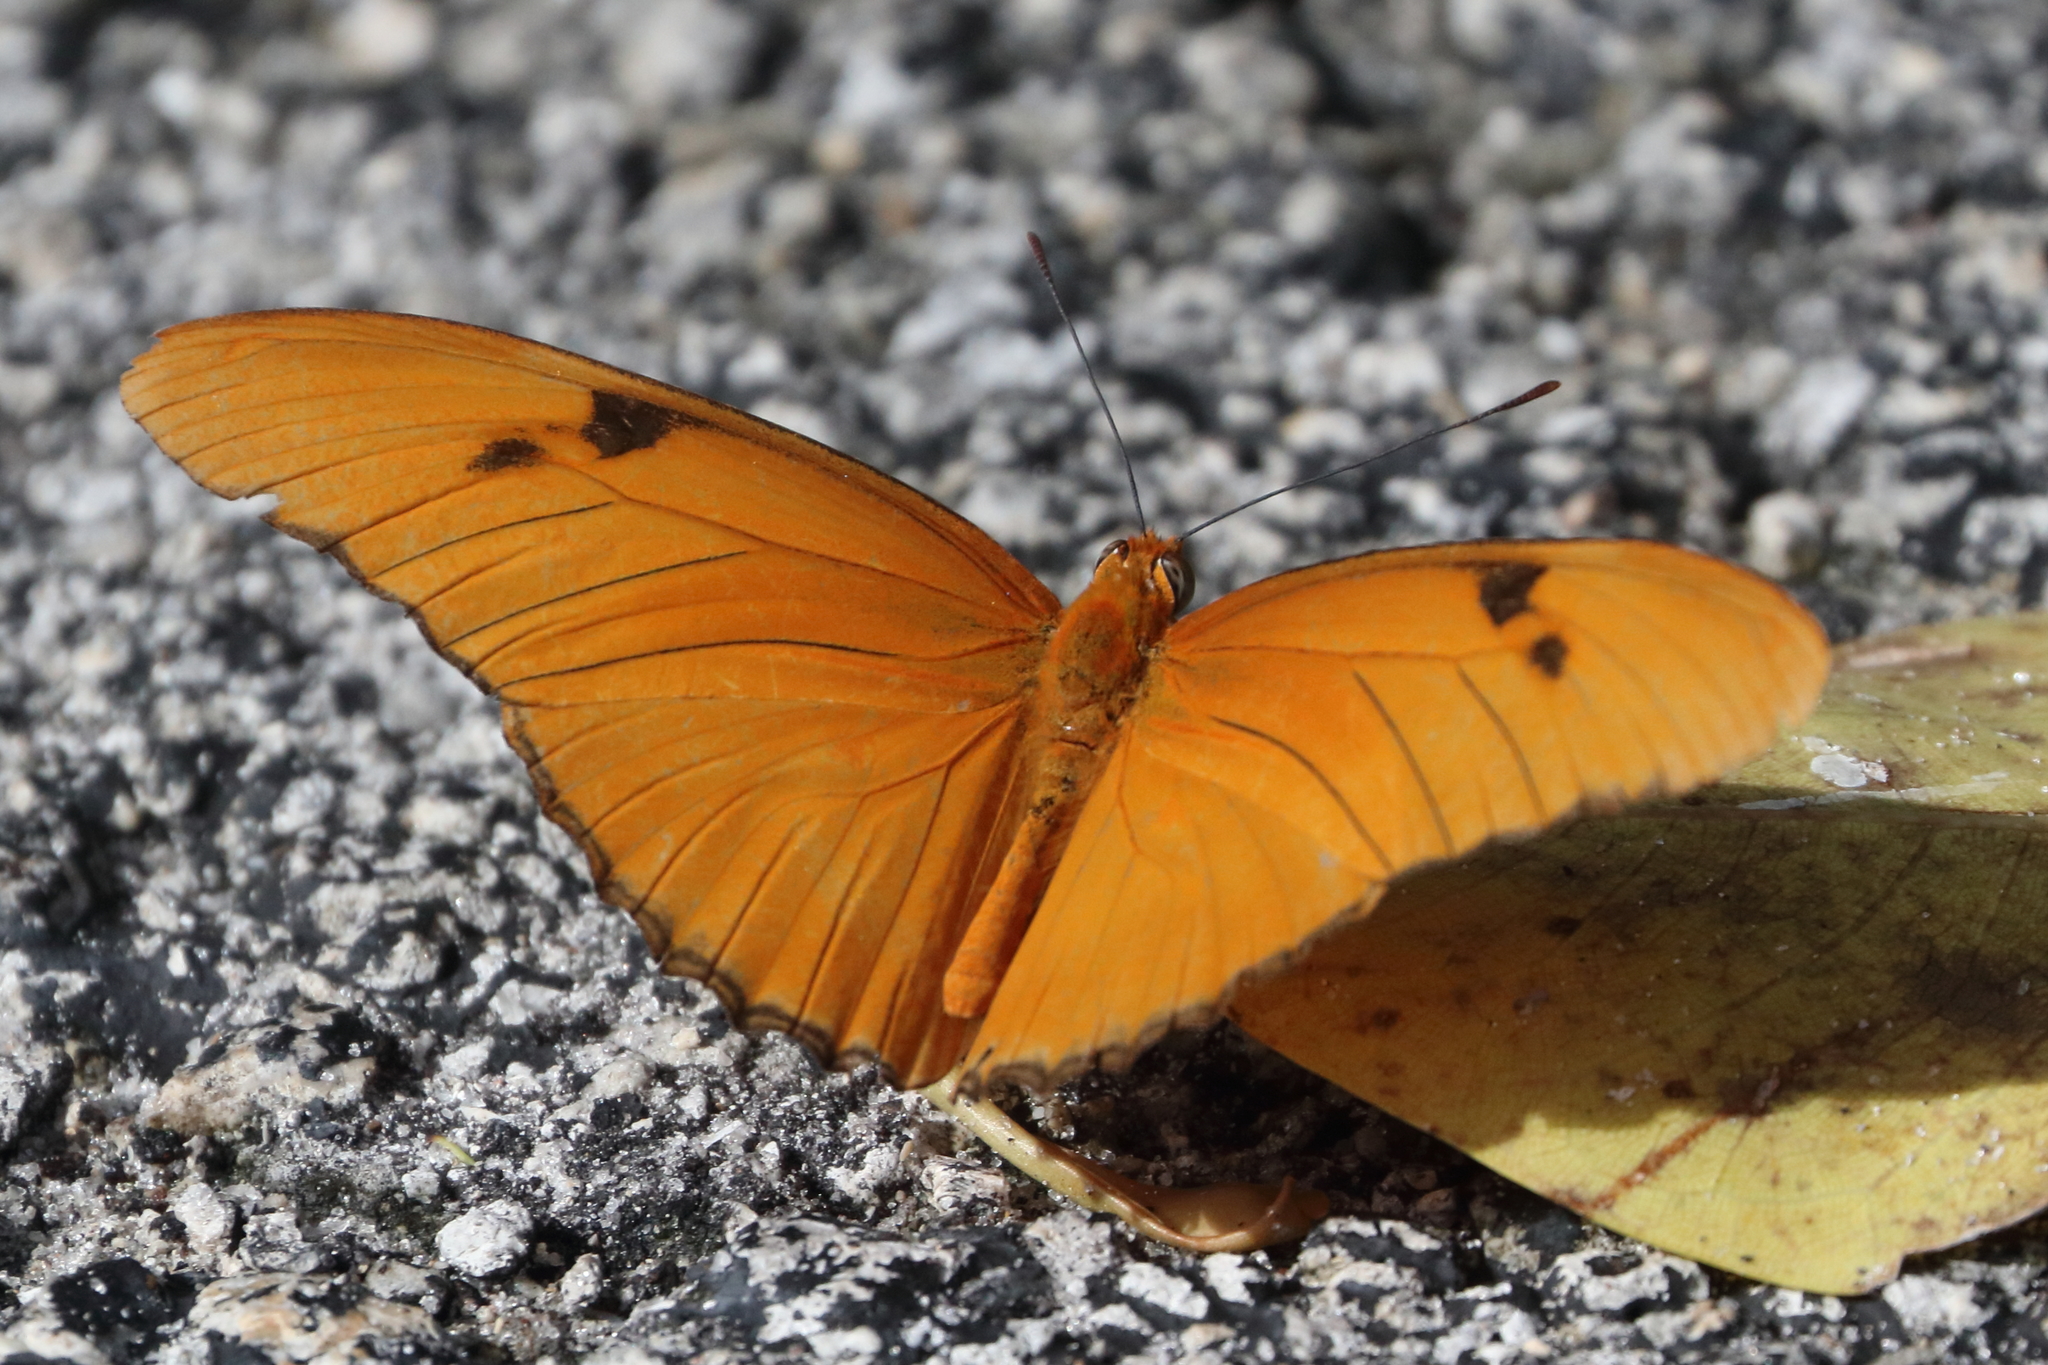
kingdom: Animalia
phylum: Arthropoda
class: Insecta
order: Lepidoptera
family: Nymphalidae
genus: Dryas
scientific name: Dryas iulia
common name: Flambeau
